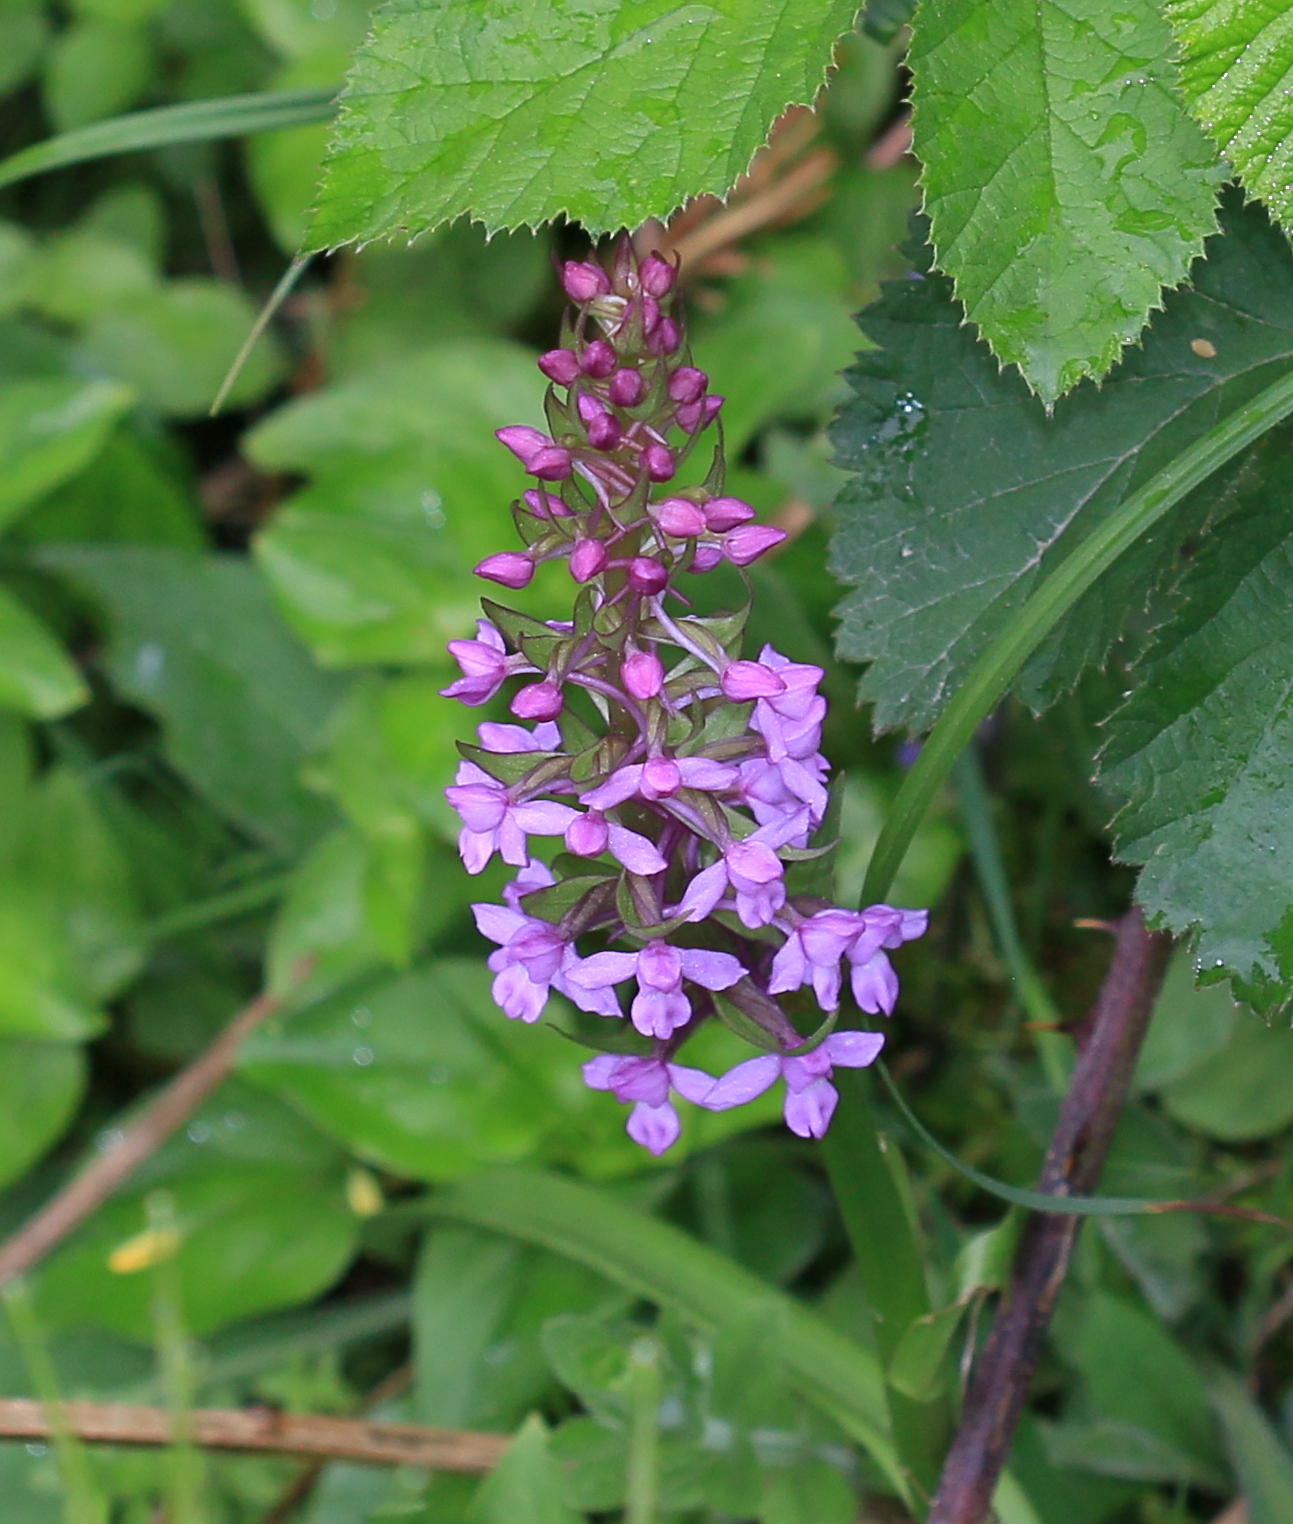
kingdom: Plantae
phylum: Tracheophyta
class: Liliopsida
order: Asparagales
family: Orchidaceae
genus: Gymnadenia
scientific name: Gymnadenia conopsea
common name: Fragrant orchid
